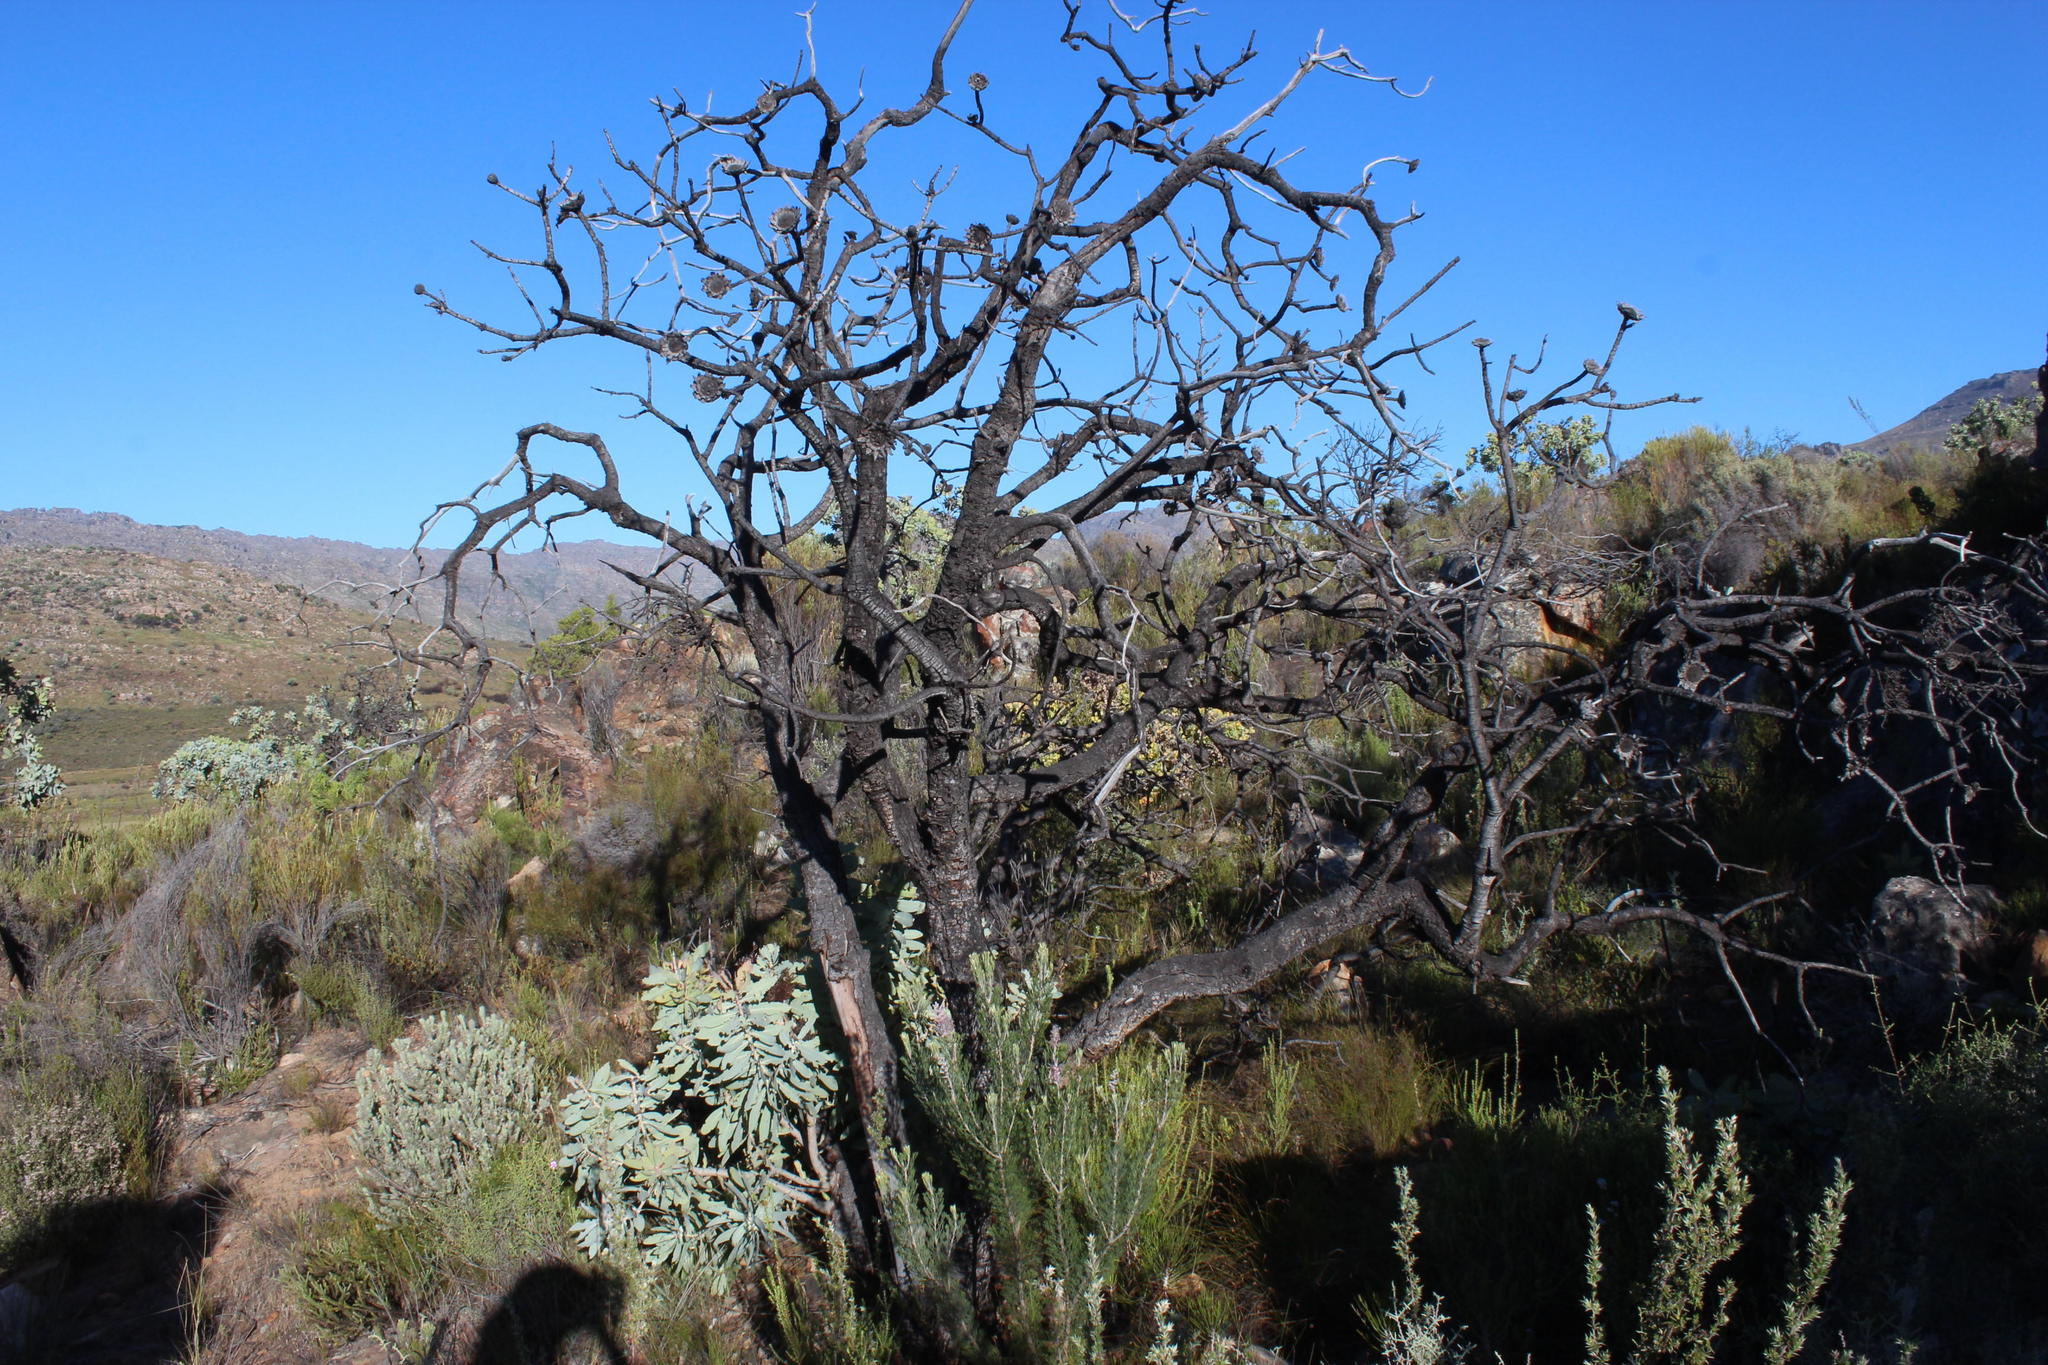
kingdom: Plantae
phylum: Tracheophyta
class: Magnoliopsida
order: Proteales
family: Proteaceae
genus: Protea
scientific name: Protea nitida
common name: Tree protea
